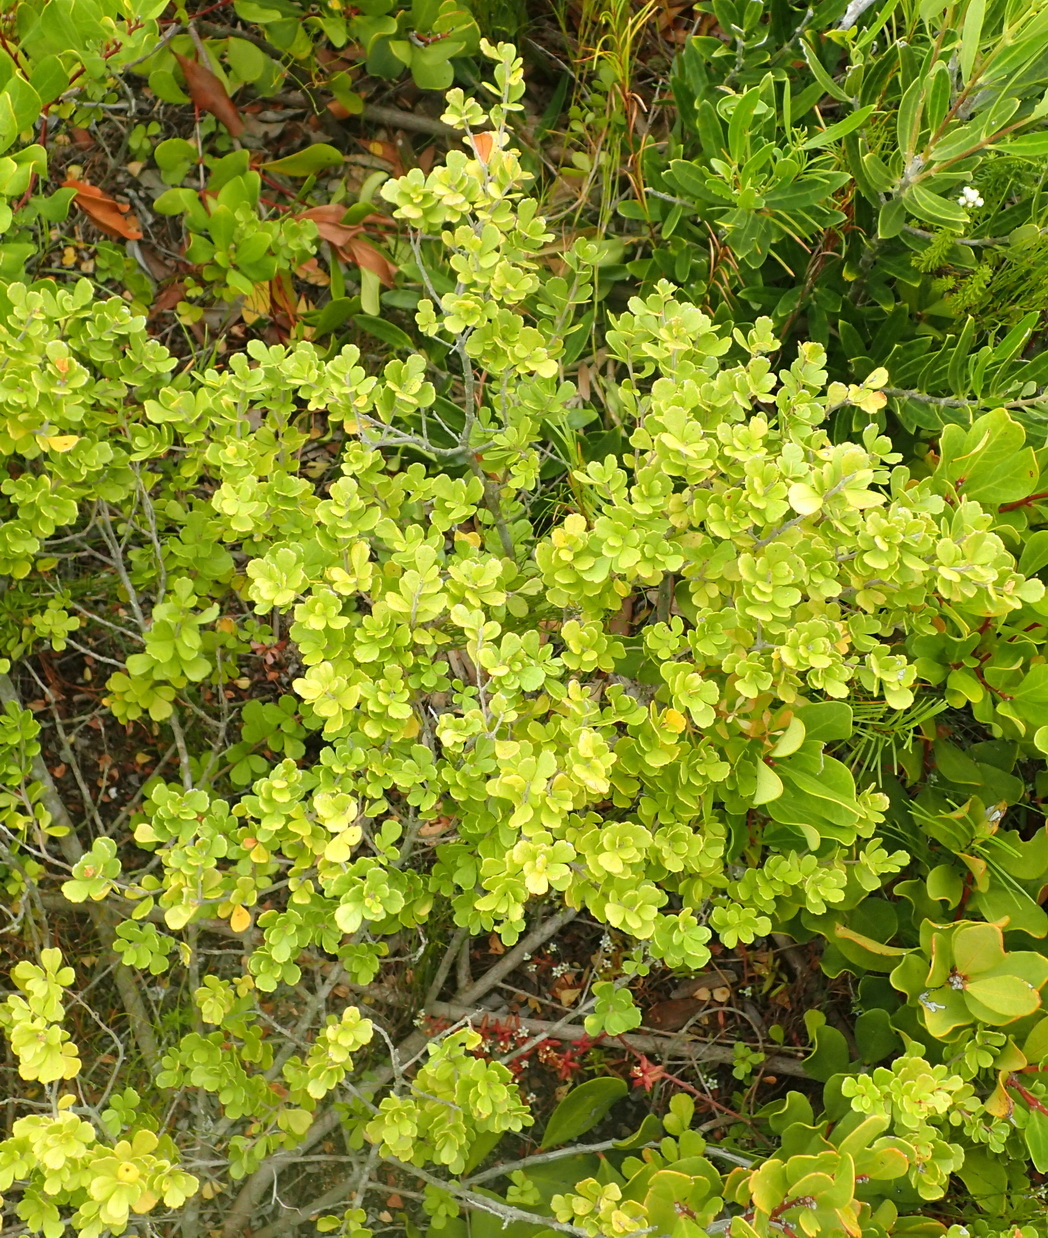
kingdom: Plantae
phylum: Tracheophyta
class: Magnoliopsida
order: Sapindales
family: Anacardiaceae
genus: Searsia
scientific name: Searsia crenata
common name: Crowberry
